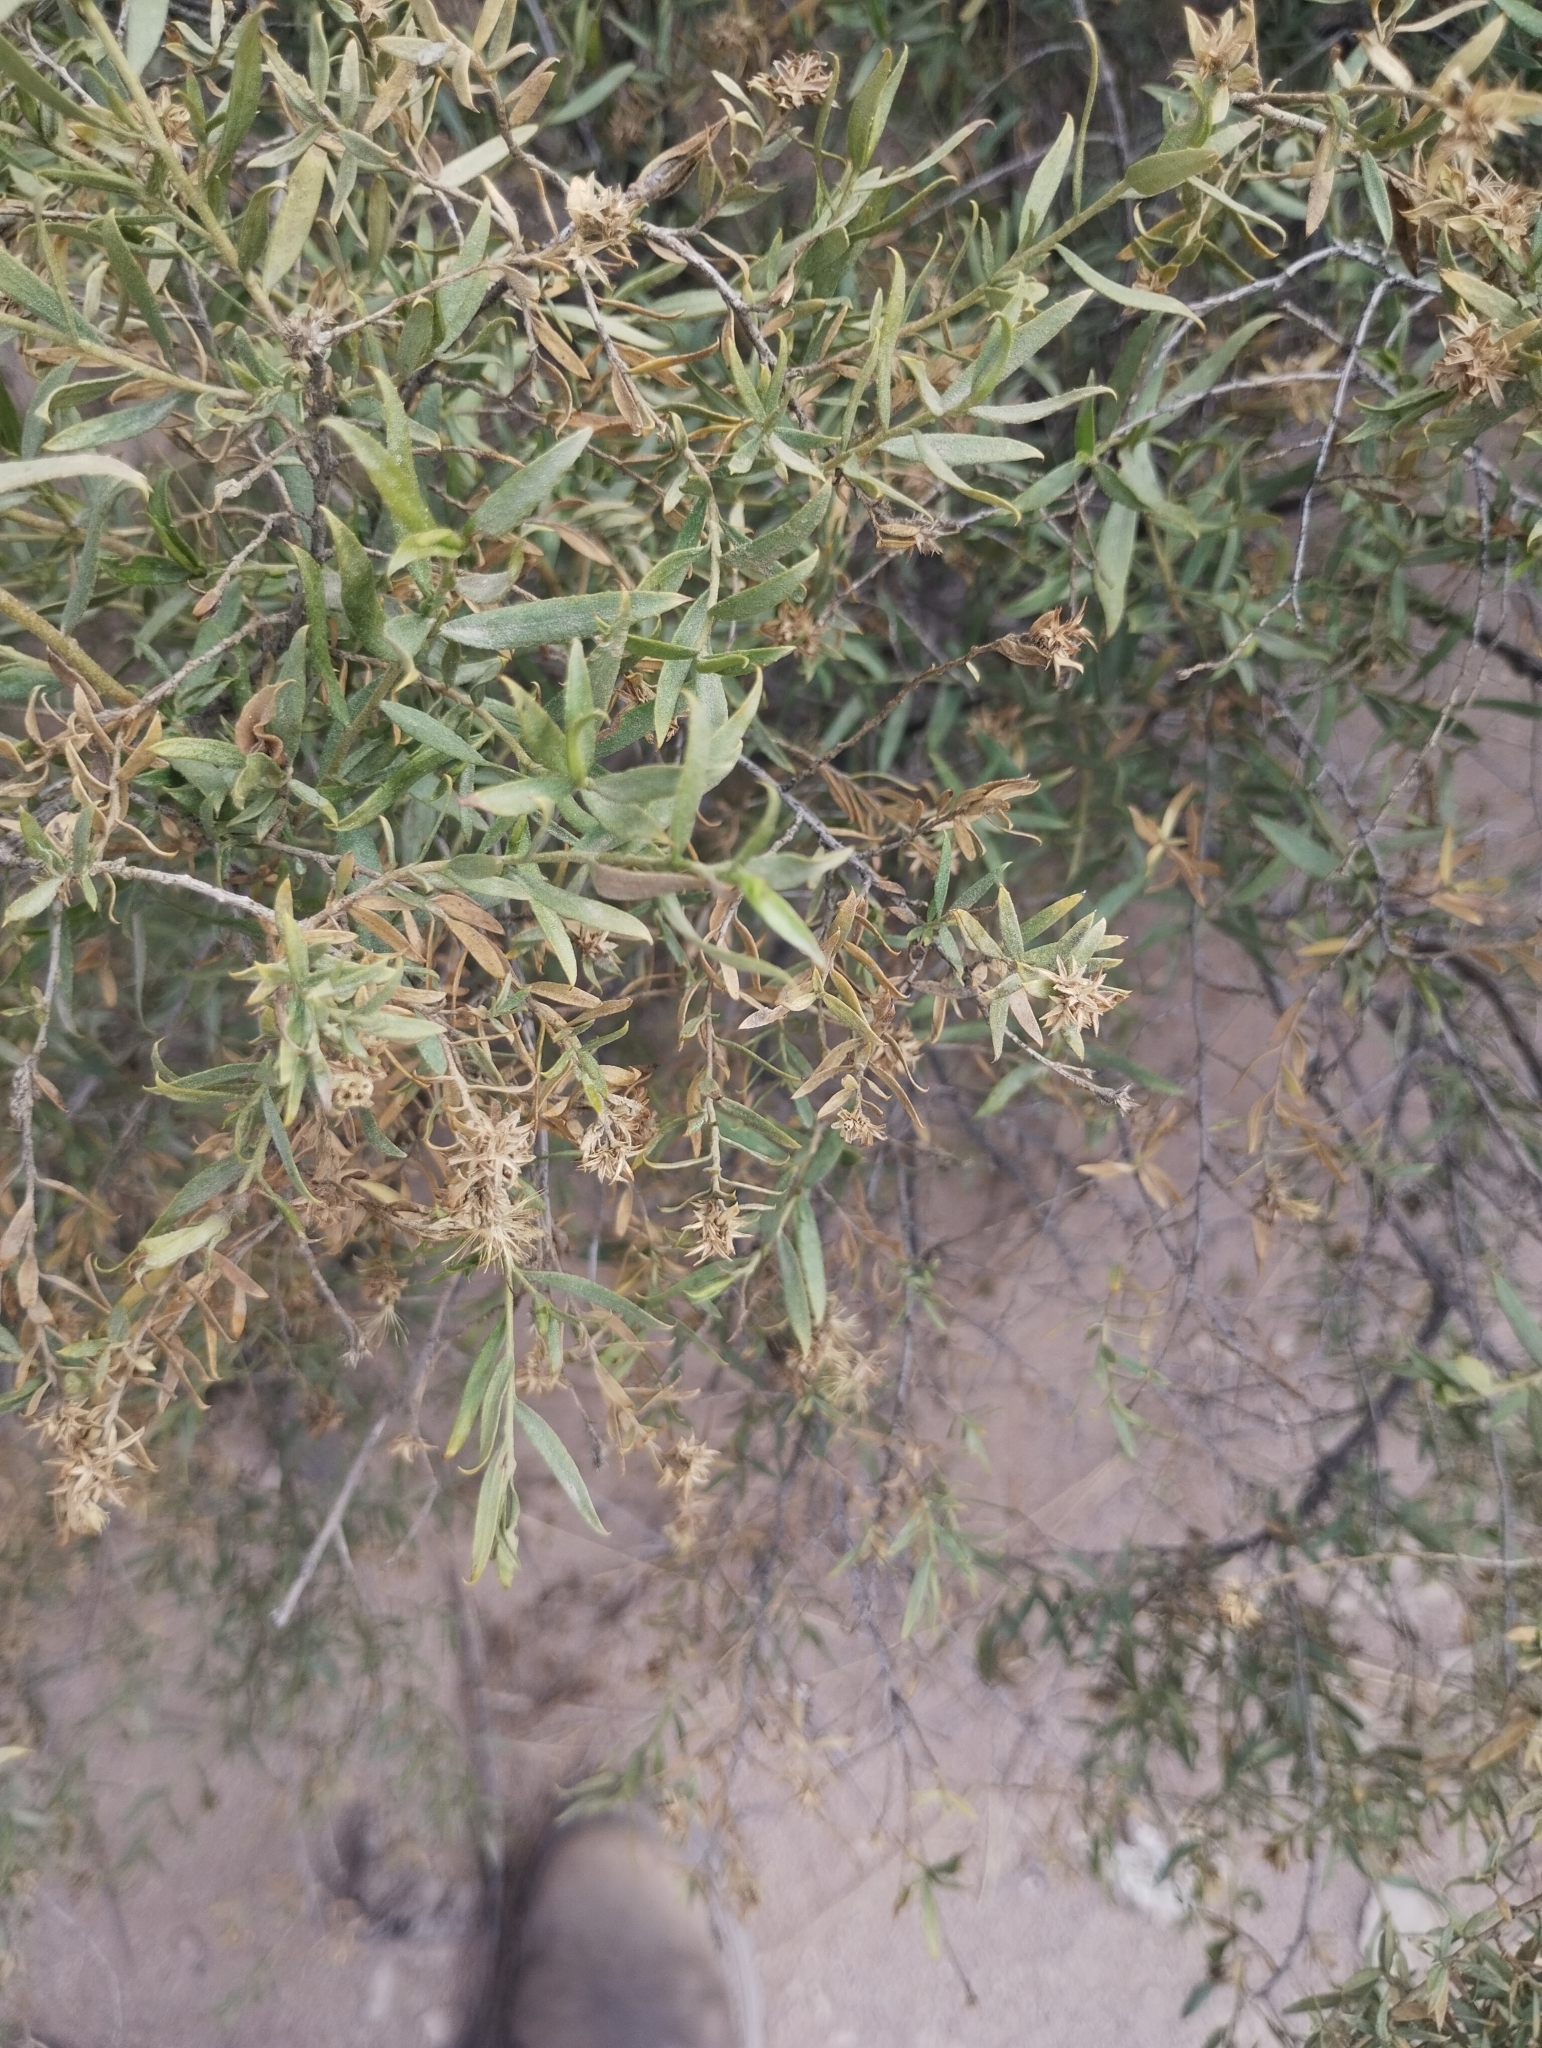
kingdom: Plantae
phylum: Tracheophyta
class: Magnoliopsida
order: Asterales
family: Asteraceae
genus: Gochnatia
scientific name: Gochnatia glutinosa
